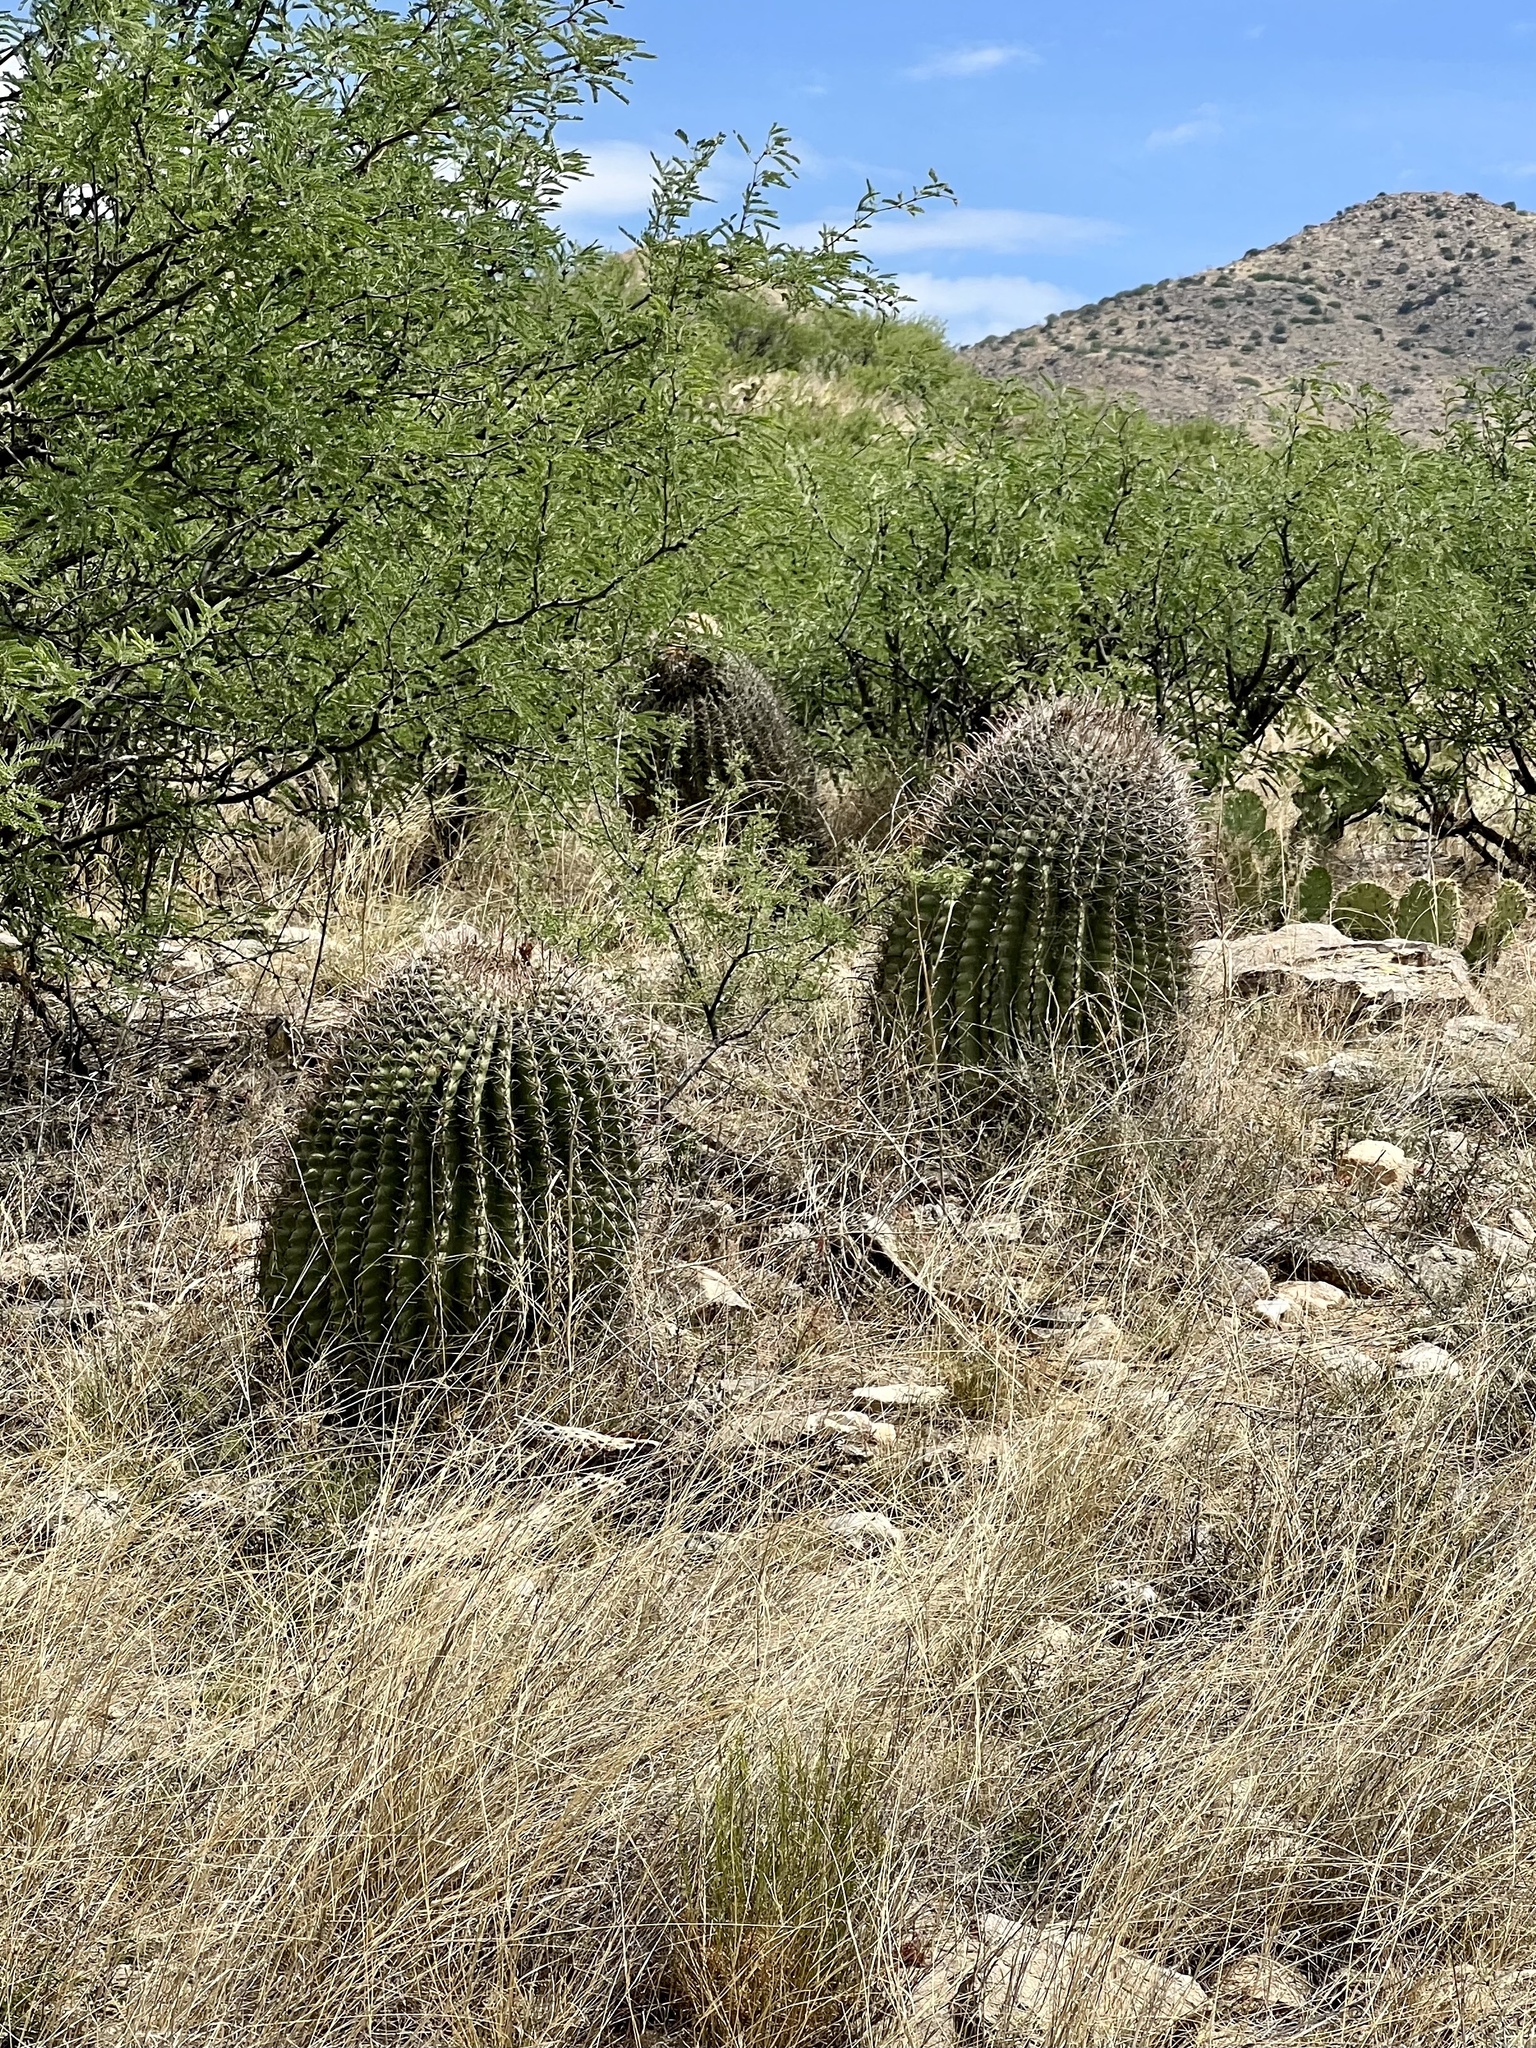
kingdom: Plantae
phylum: Tracheophyta
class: Magnoliopsida
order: Caryophyllales
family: Cactaceae
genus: Ferocactus
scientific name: Ferocactus wislizeni
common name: Candy barrel cactus
